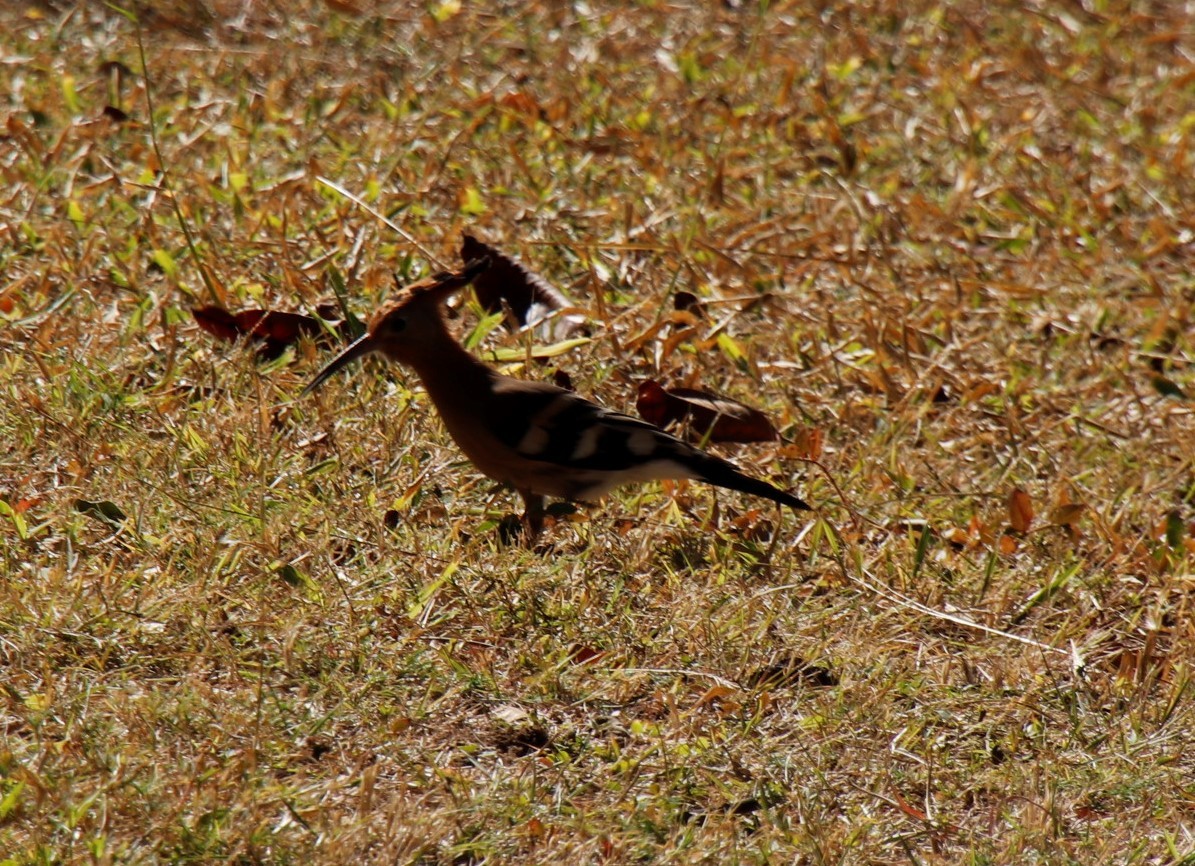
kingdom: Animalia
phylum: Chordata
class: Aves
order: Bucerotiformes
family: Upupidae
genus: Upupa
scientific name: Upupa africana
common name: African hoopoe
